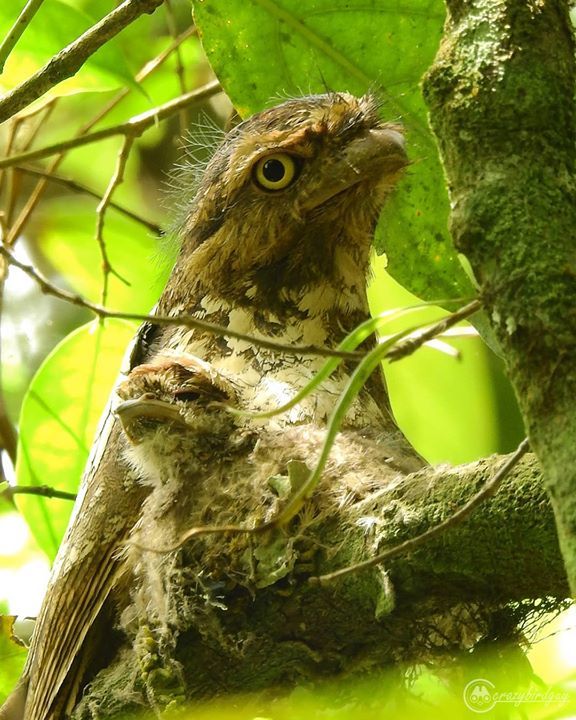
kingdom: Animalia
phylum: Chordata
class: Aves
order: Caprimulgiformes
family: Podargidae
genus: Batrachostomus
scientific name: Batrachostomus javensis
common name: Javan frogmouth
